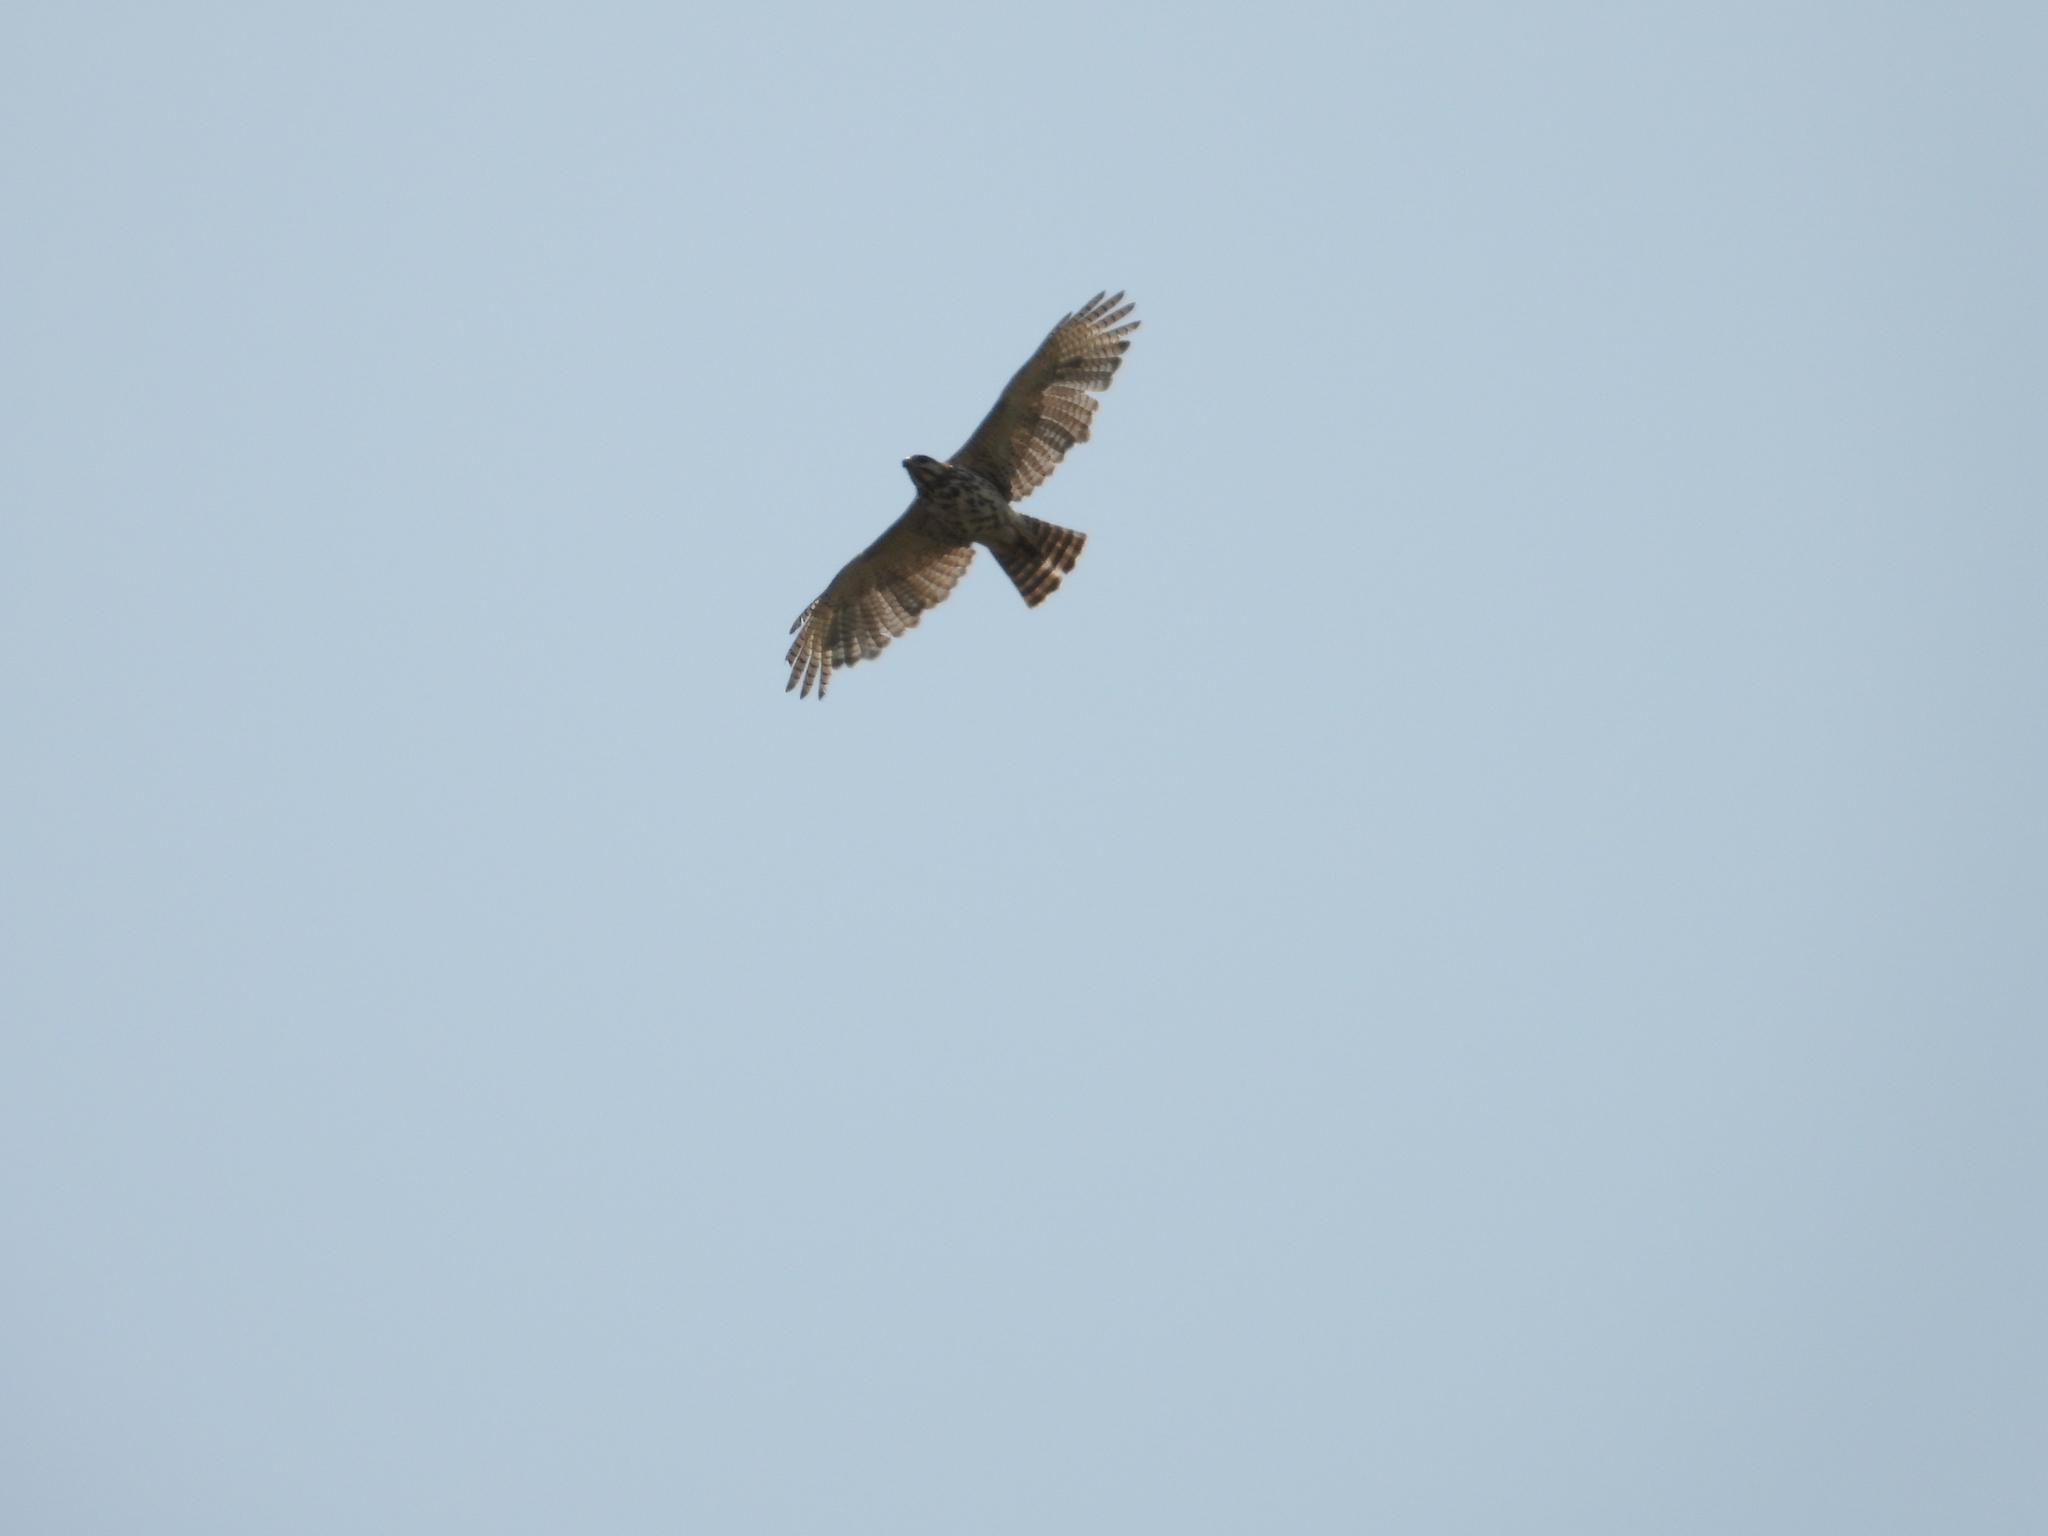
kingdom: Animalia
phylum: Chordata
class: Aves
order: Accipitriformes
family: Accipitridae
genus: Buteo
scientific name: Buteo nitidus
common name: Grey-lined hawk
